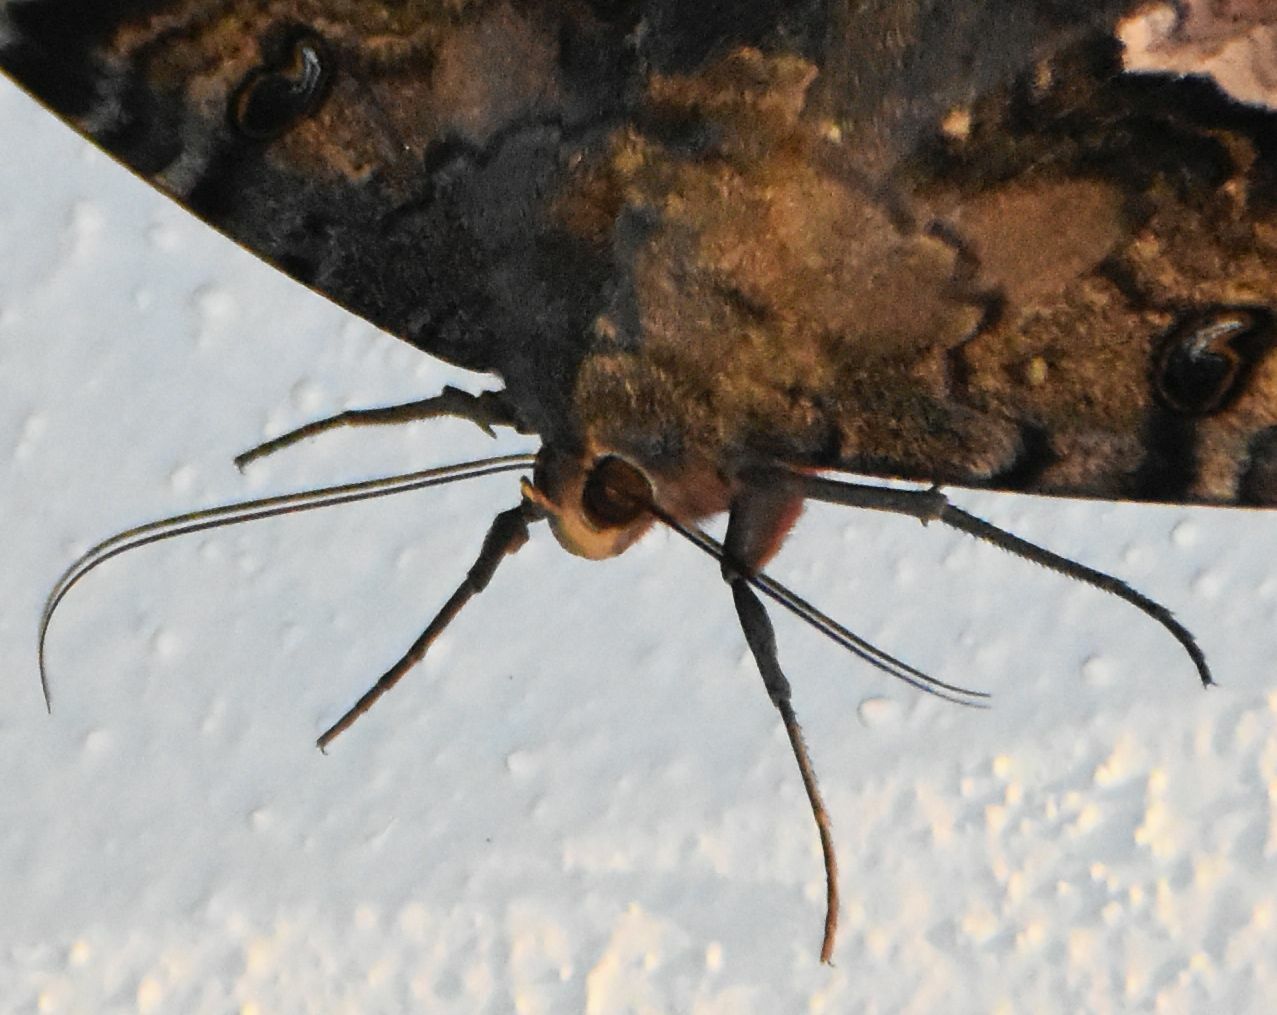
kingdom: Animalia
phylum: Arthropoda
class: Insecta
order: Lepidoptera
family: Erebidae
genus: Ascalapha
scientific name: Ascalapha odorata
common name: Black witch
